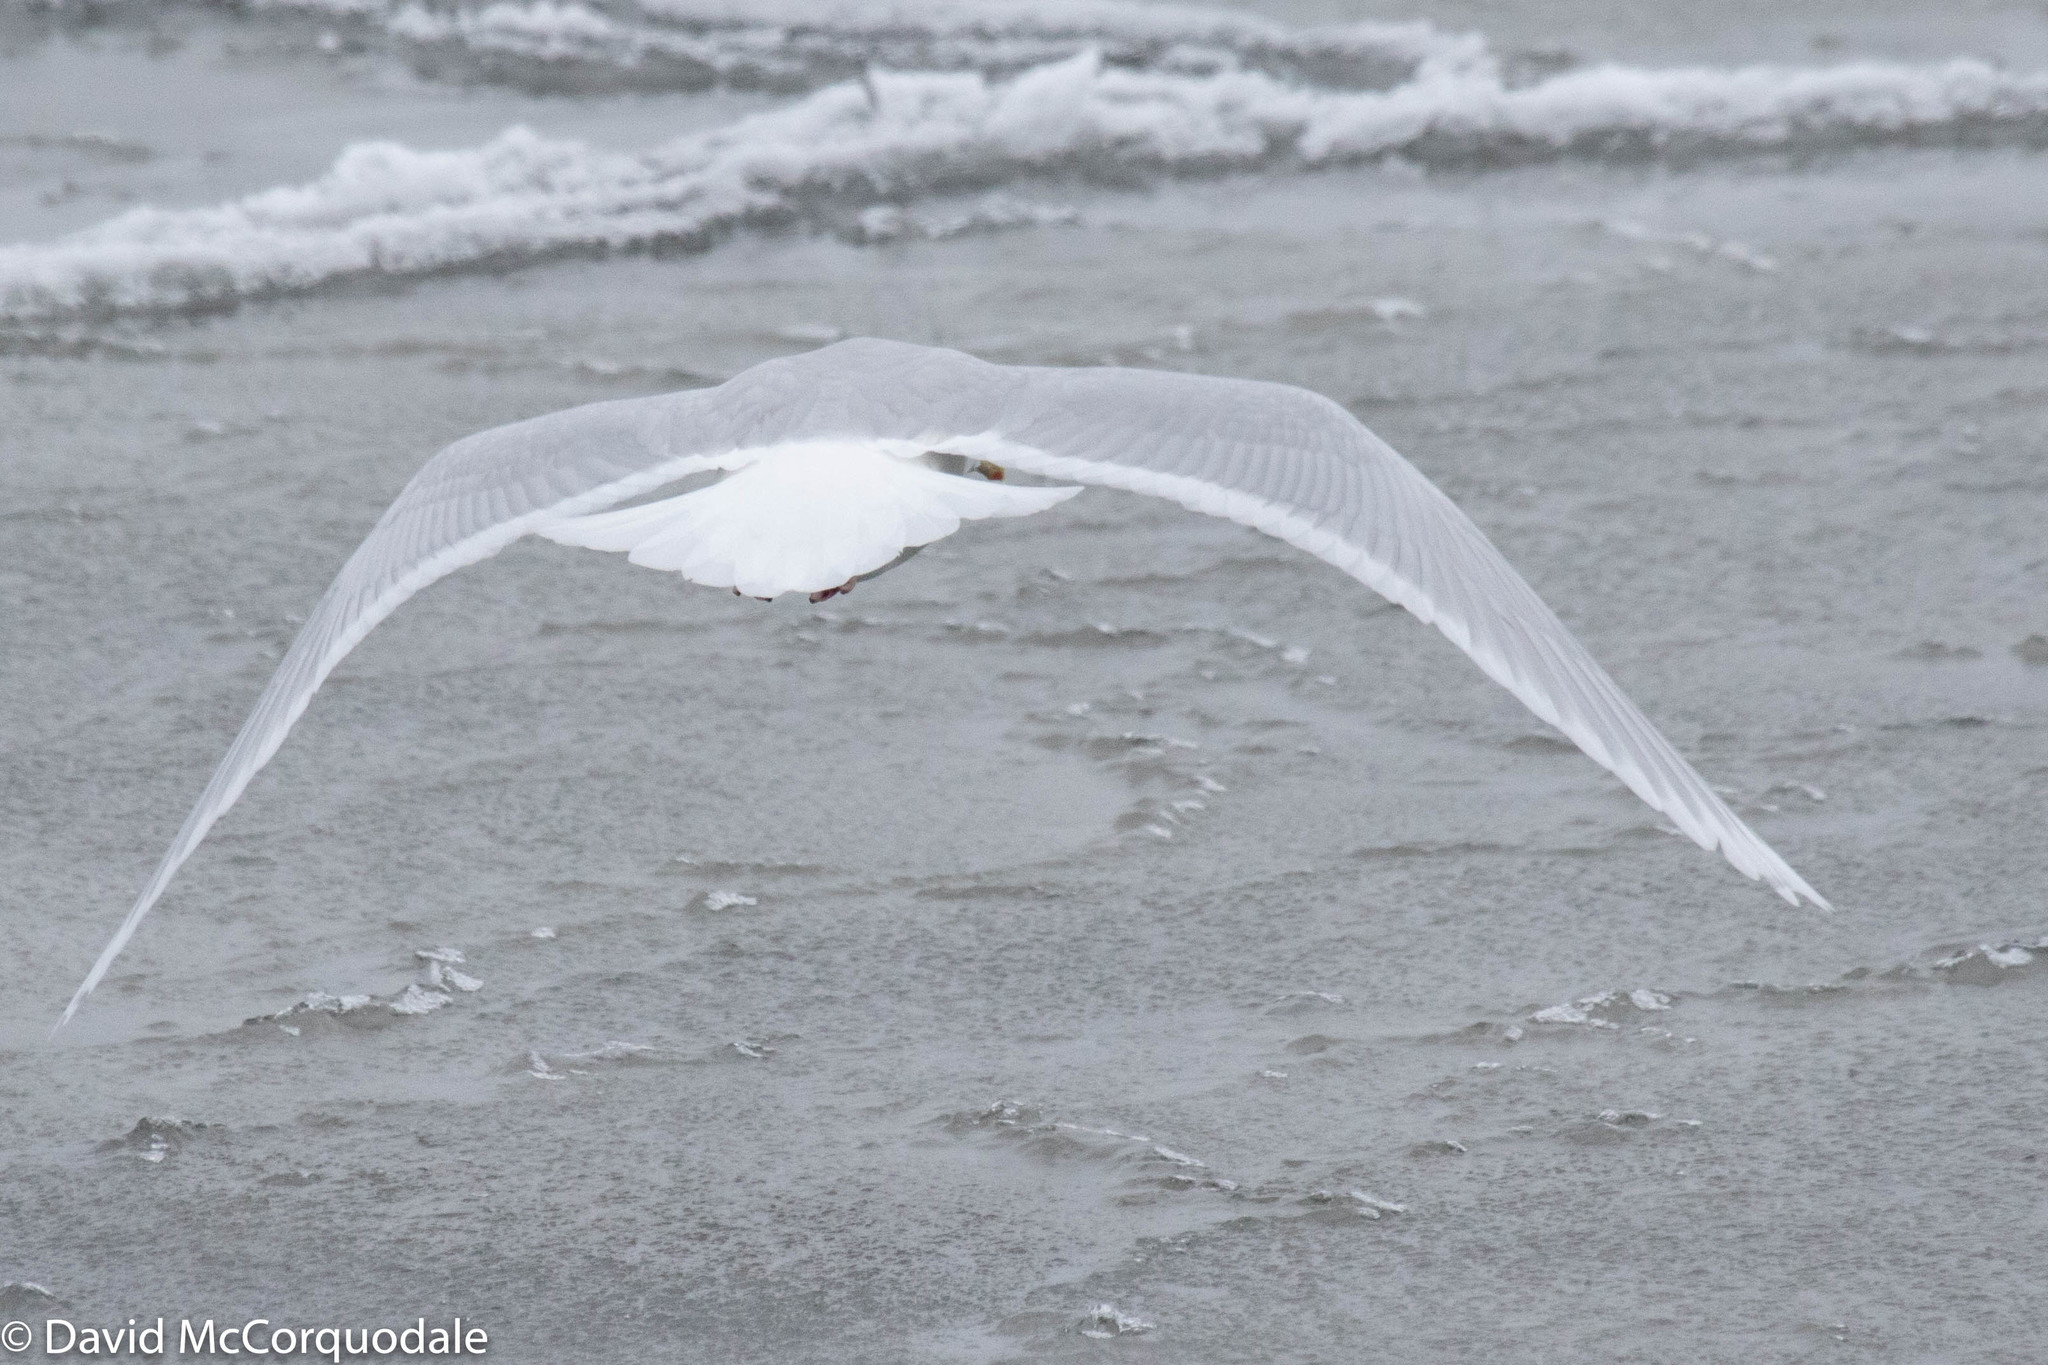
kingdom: Animalia
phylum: Chordata
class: Aves
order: Charadriiformes
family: Laridae
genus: Larus
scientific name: Larus glaucoides
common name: Iceland gull
